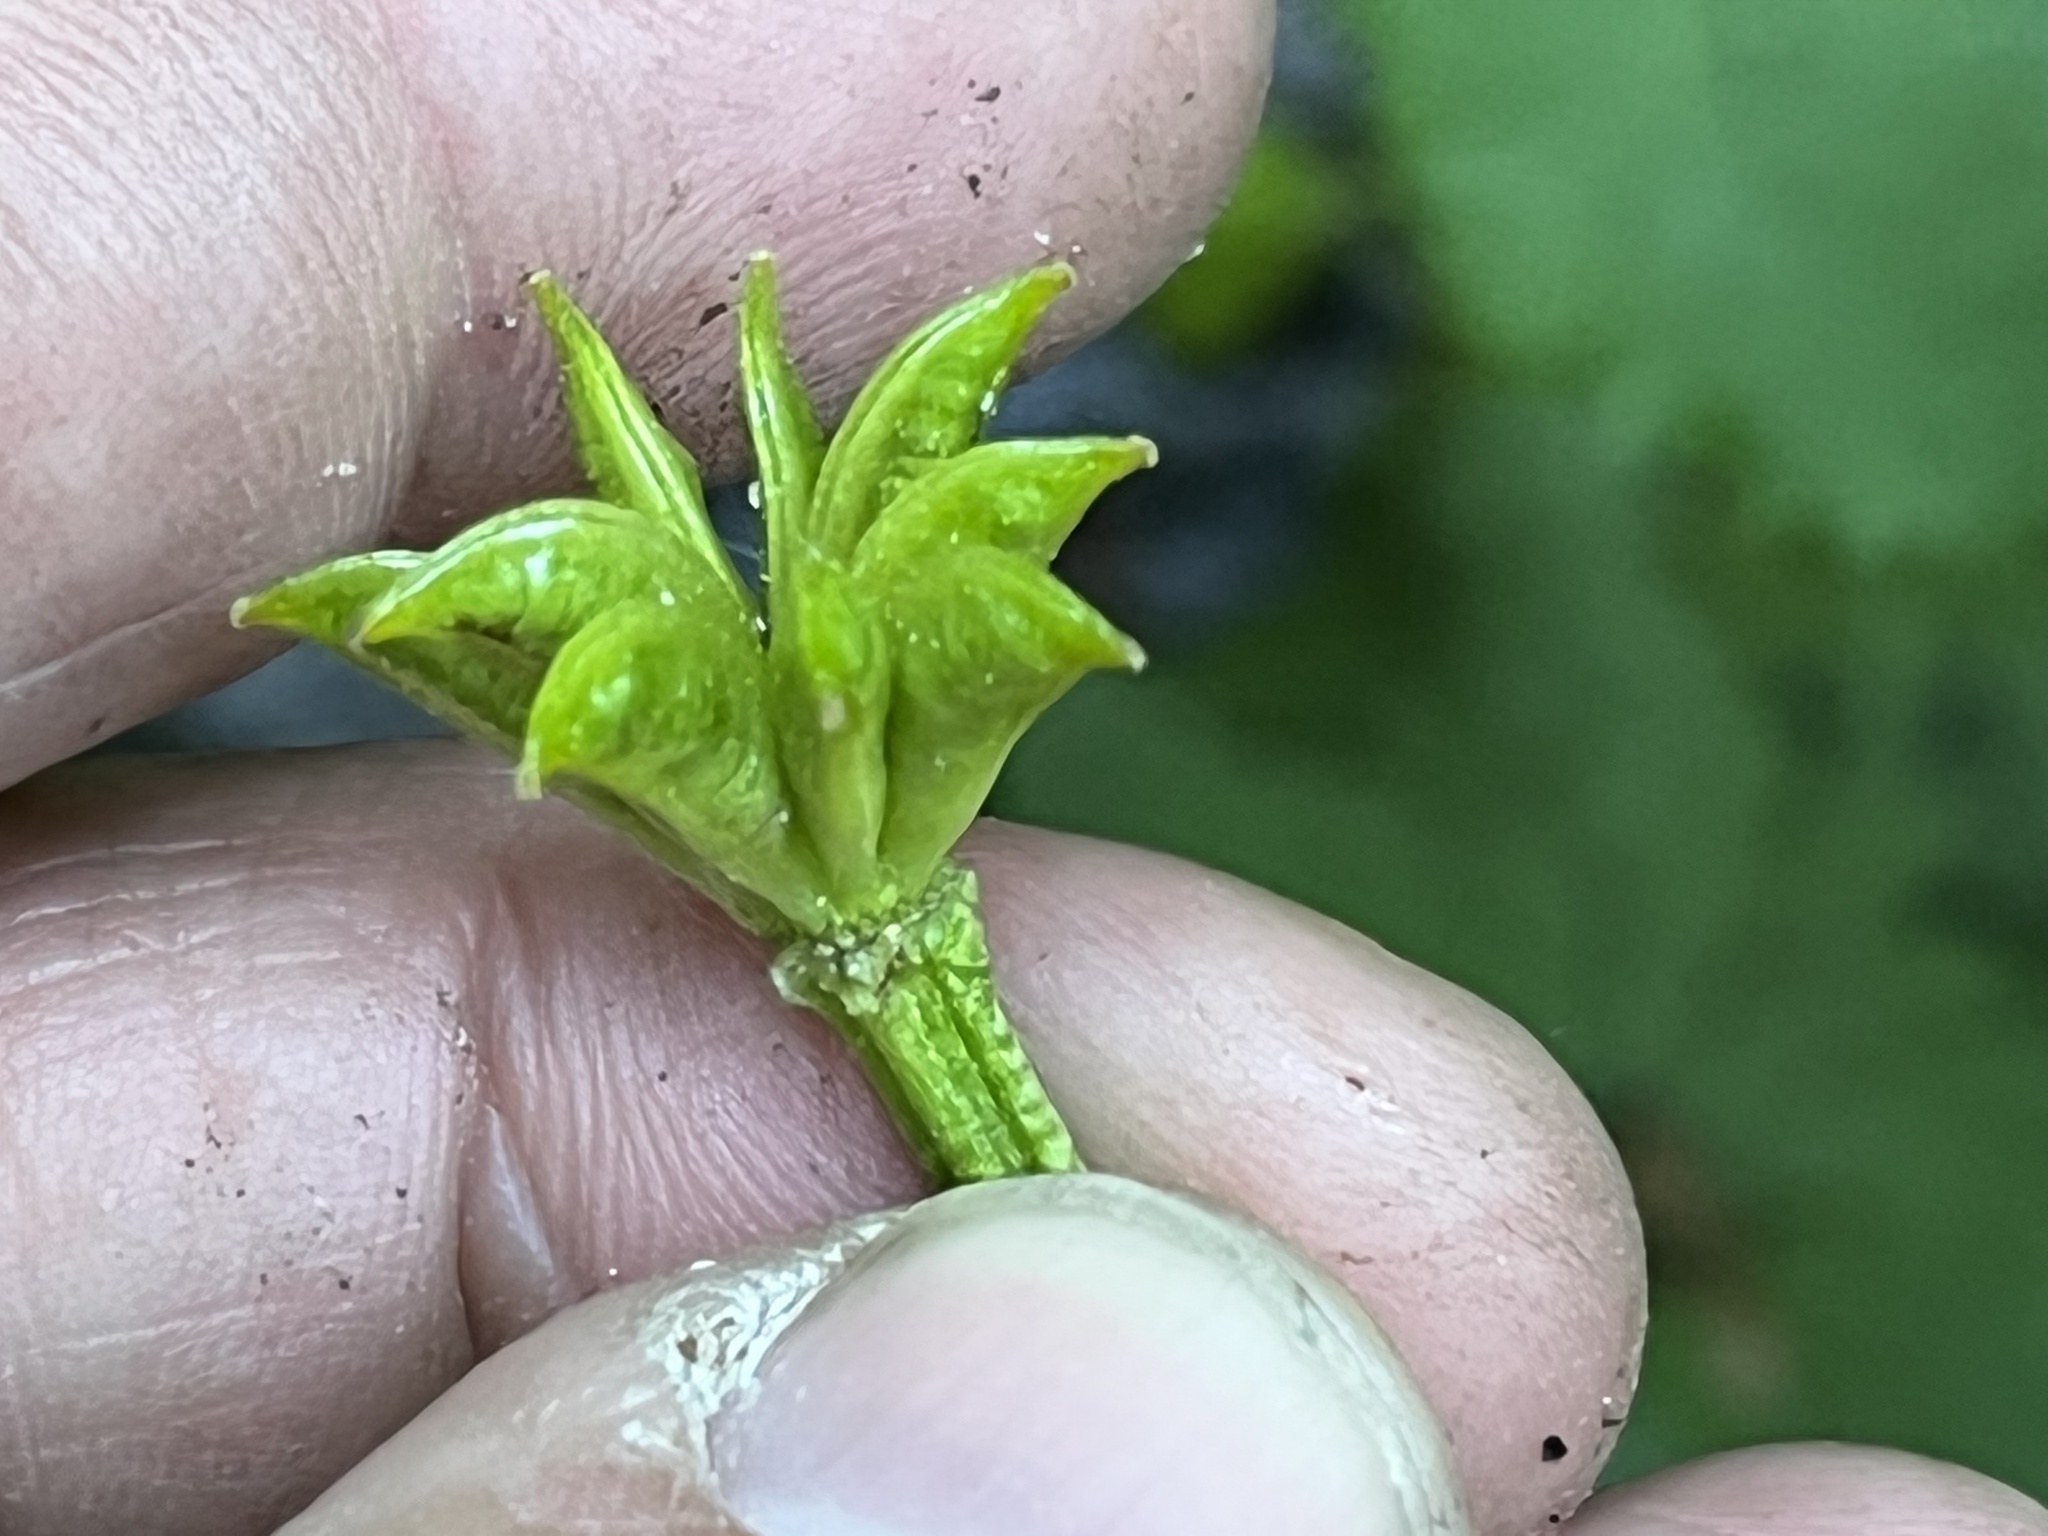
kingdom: Plantae
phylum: Tracheophyta
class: Magnoliopsida
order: Ranunculales
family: Ranunculaceae
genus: Caltha
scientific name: Caltha palustris
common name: Marsh marigold
